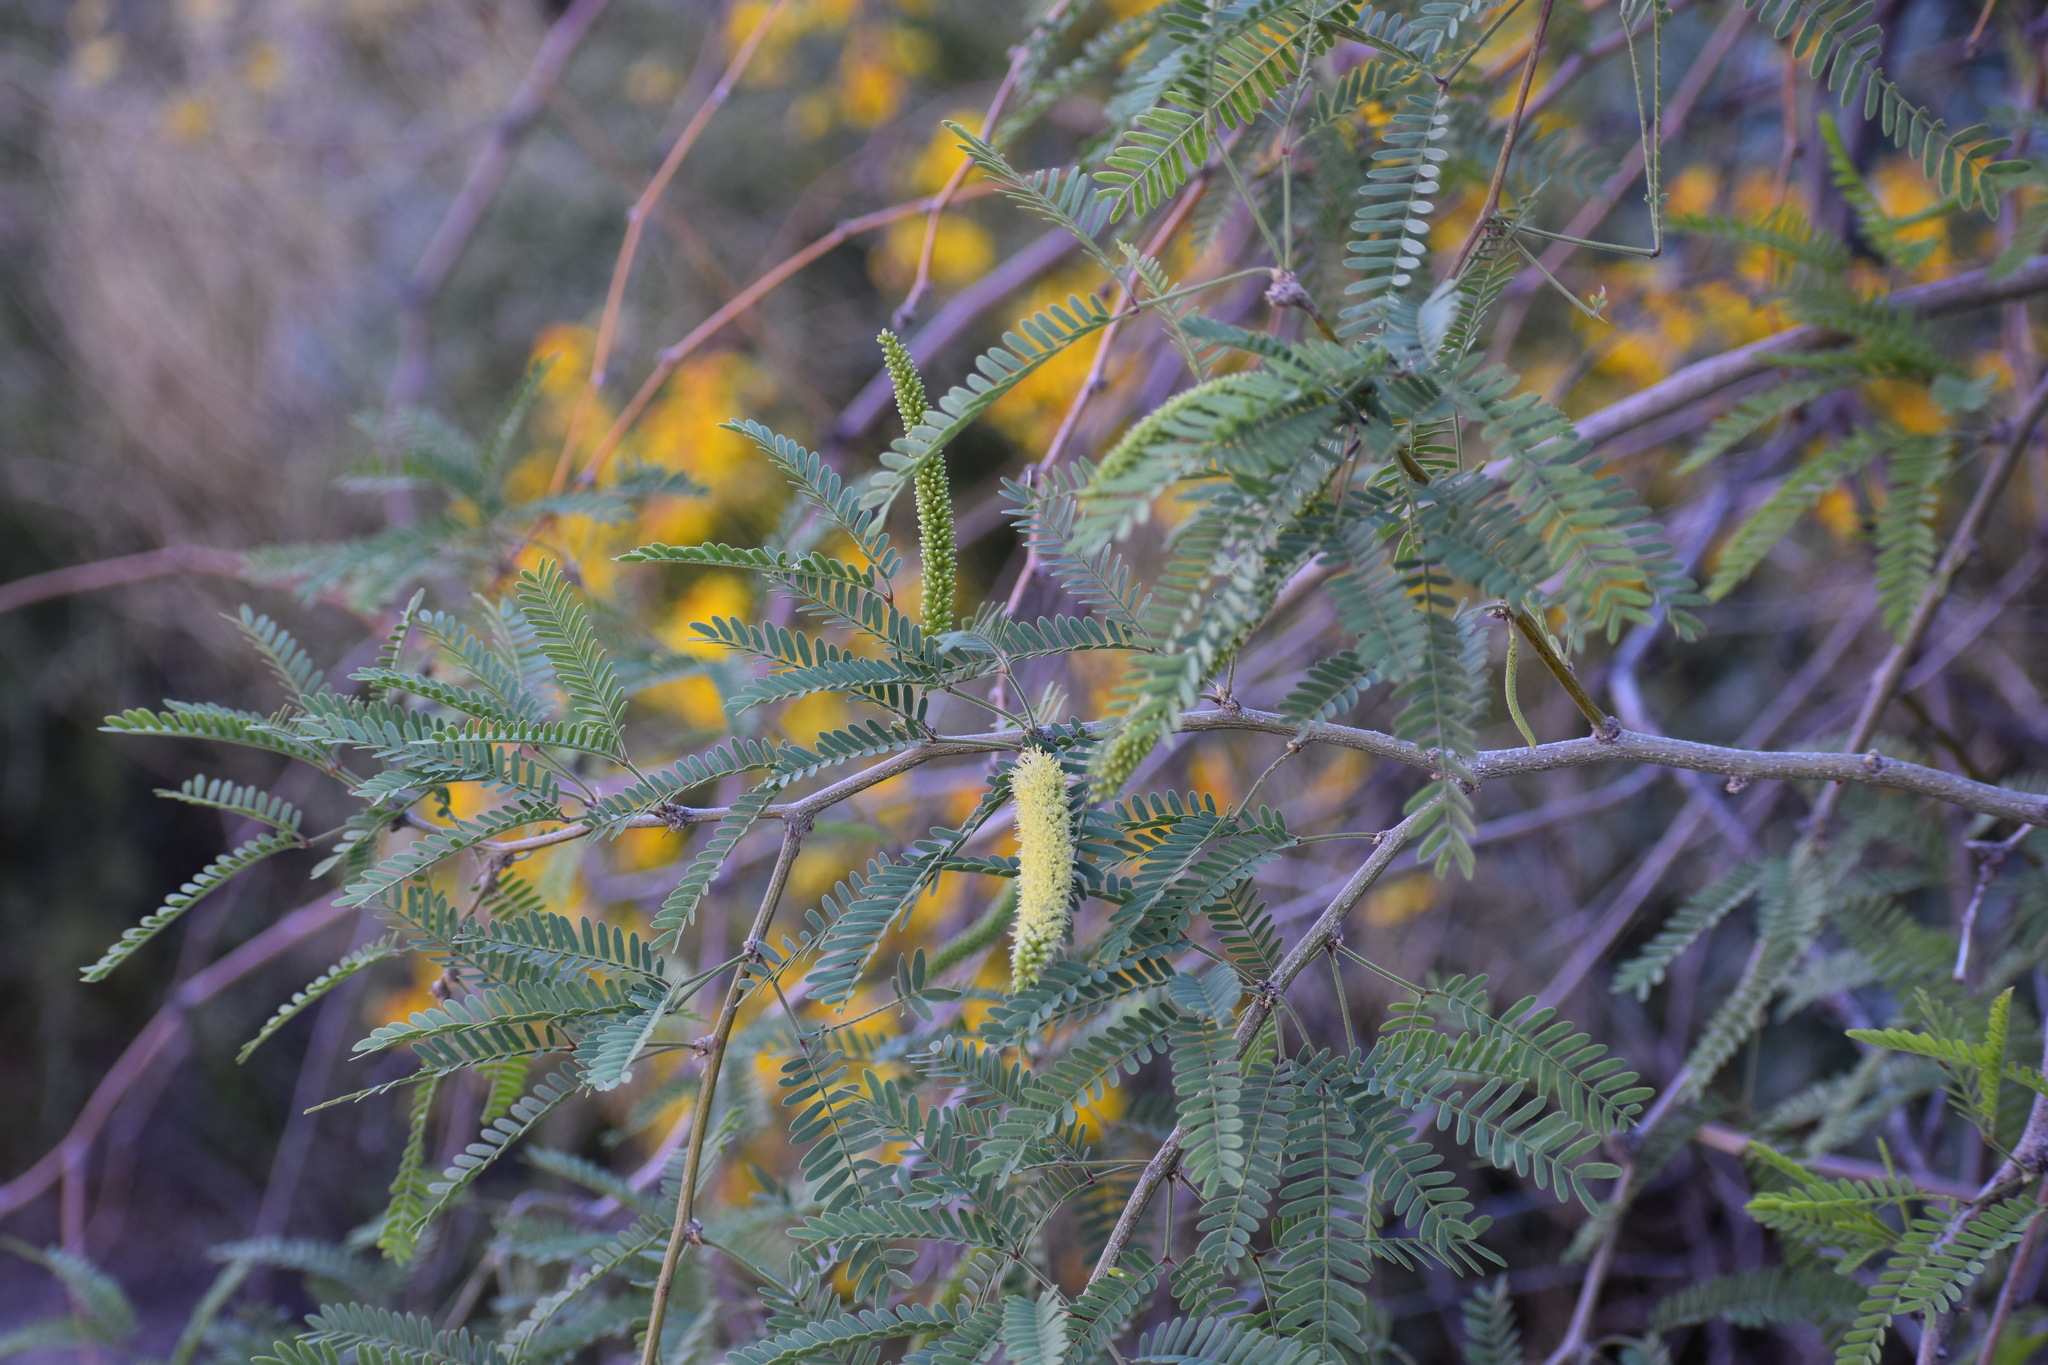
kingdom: Plantae
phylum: Tracheophyta
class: Magnoliopsida
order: Fabales
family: Fabaceae
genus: Prosopis
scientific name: Prosopis velutina
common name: Velvet mesquite
